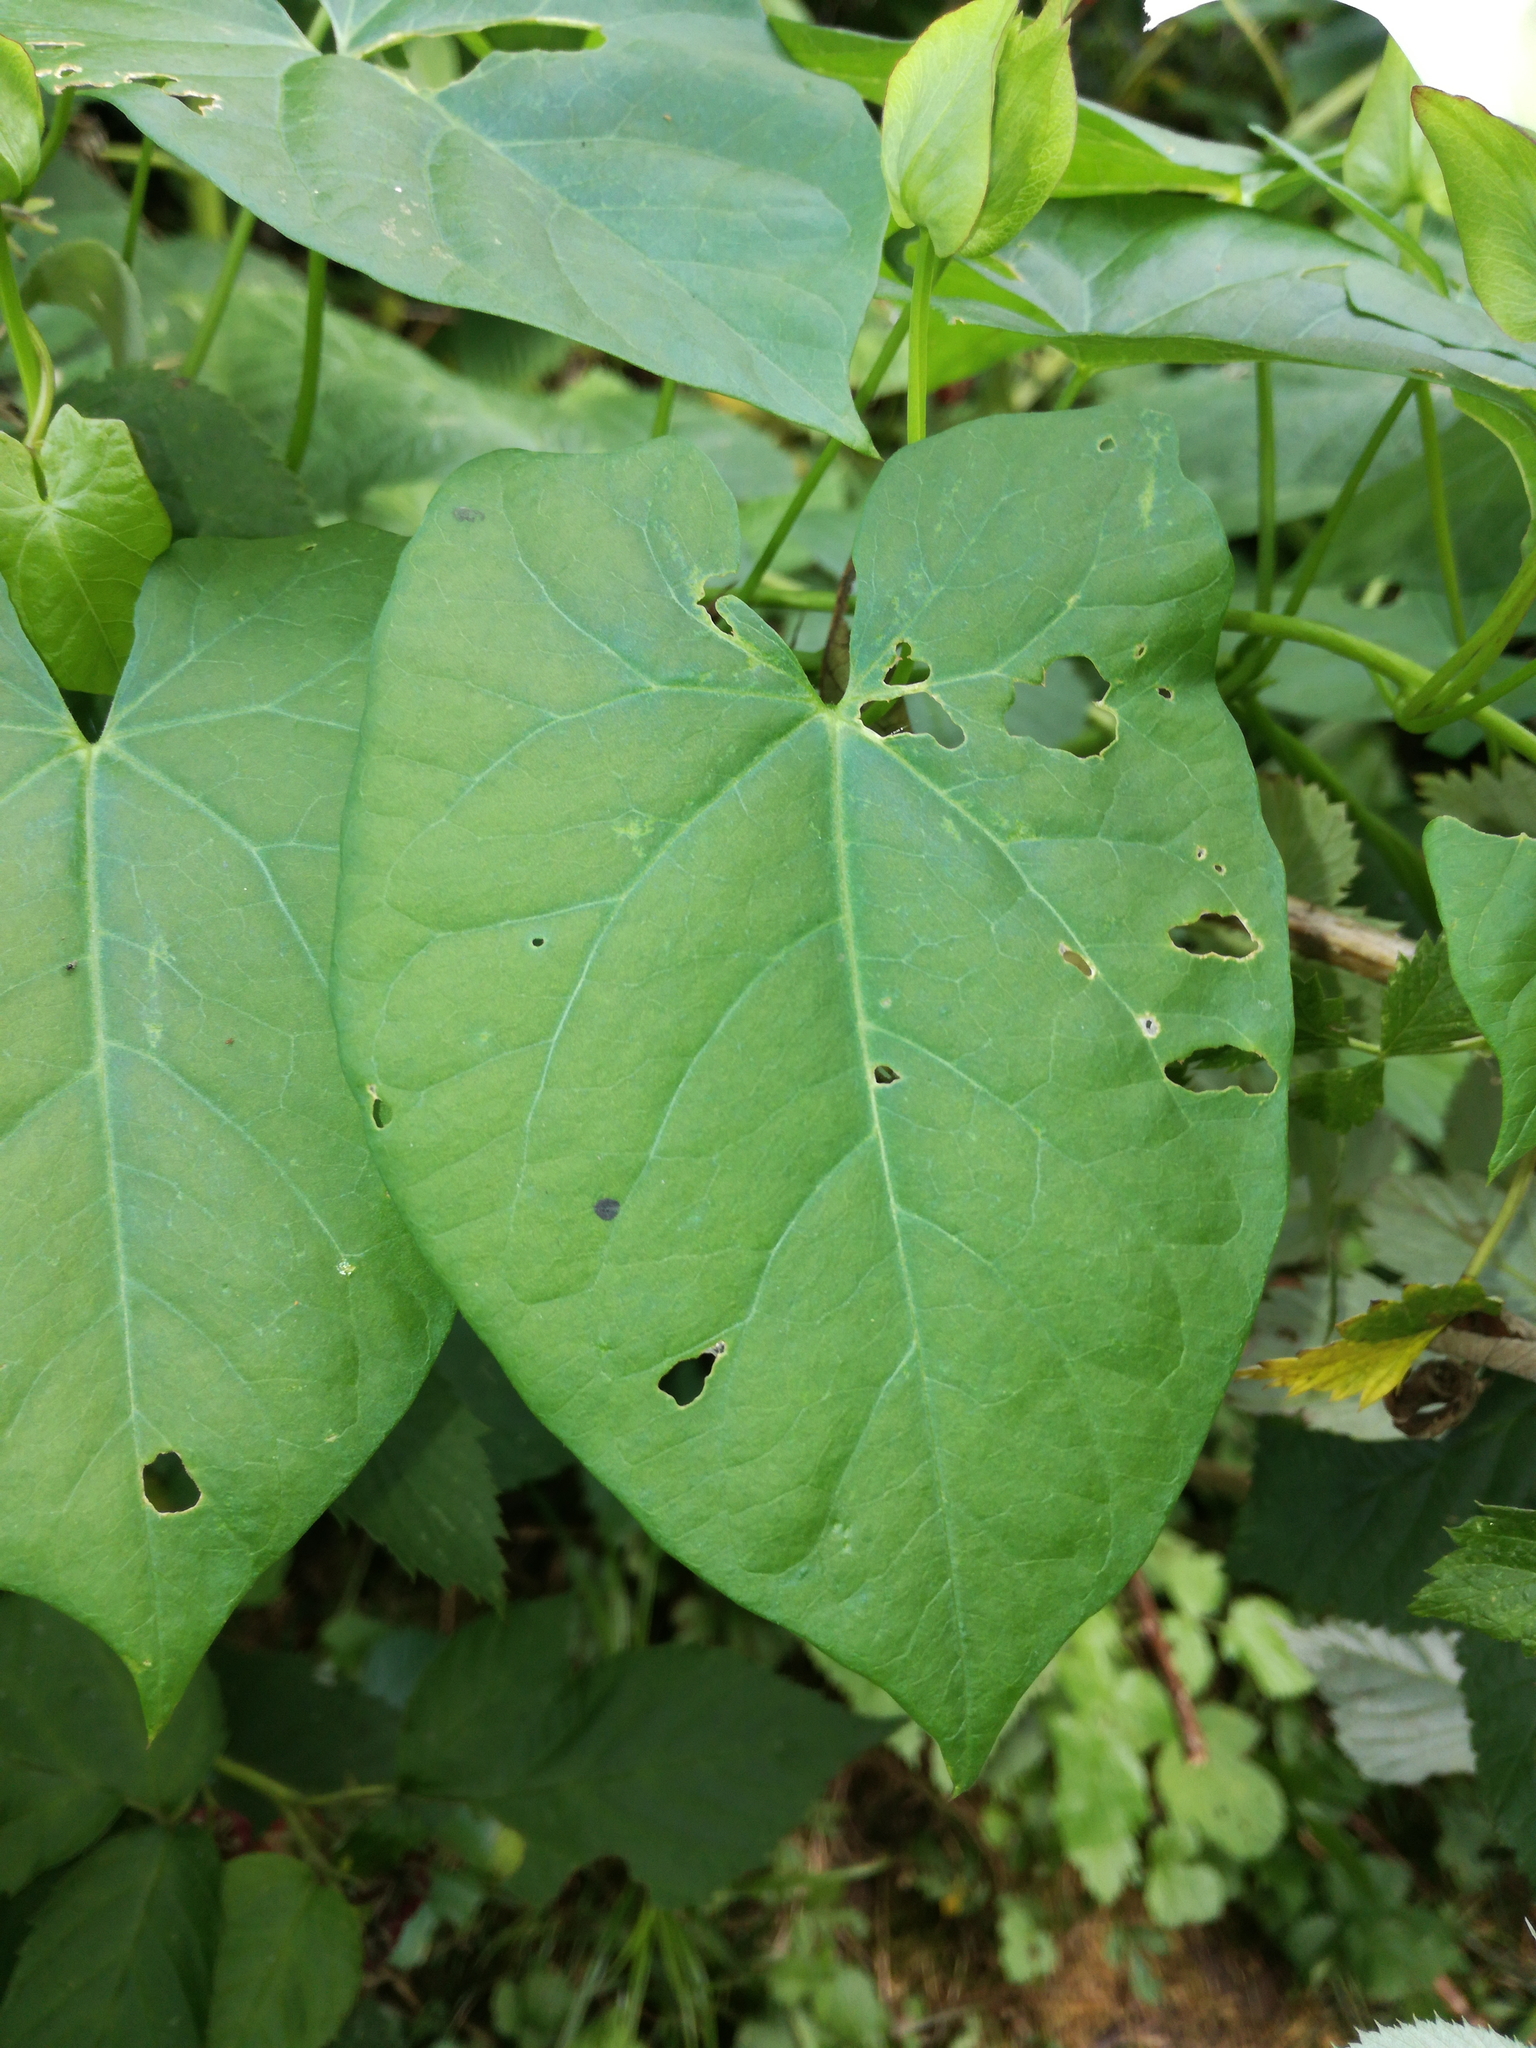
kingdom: Plantae
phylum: Tracheophyta
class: Magnoliopsida
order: Solanales
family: Convolvulaceae
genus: Calystegia
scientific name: Calystegia sepium
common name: Hedge bindweed
